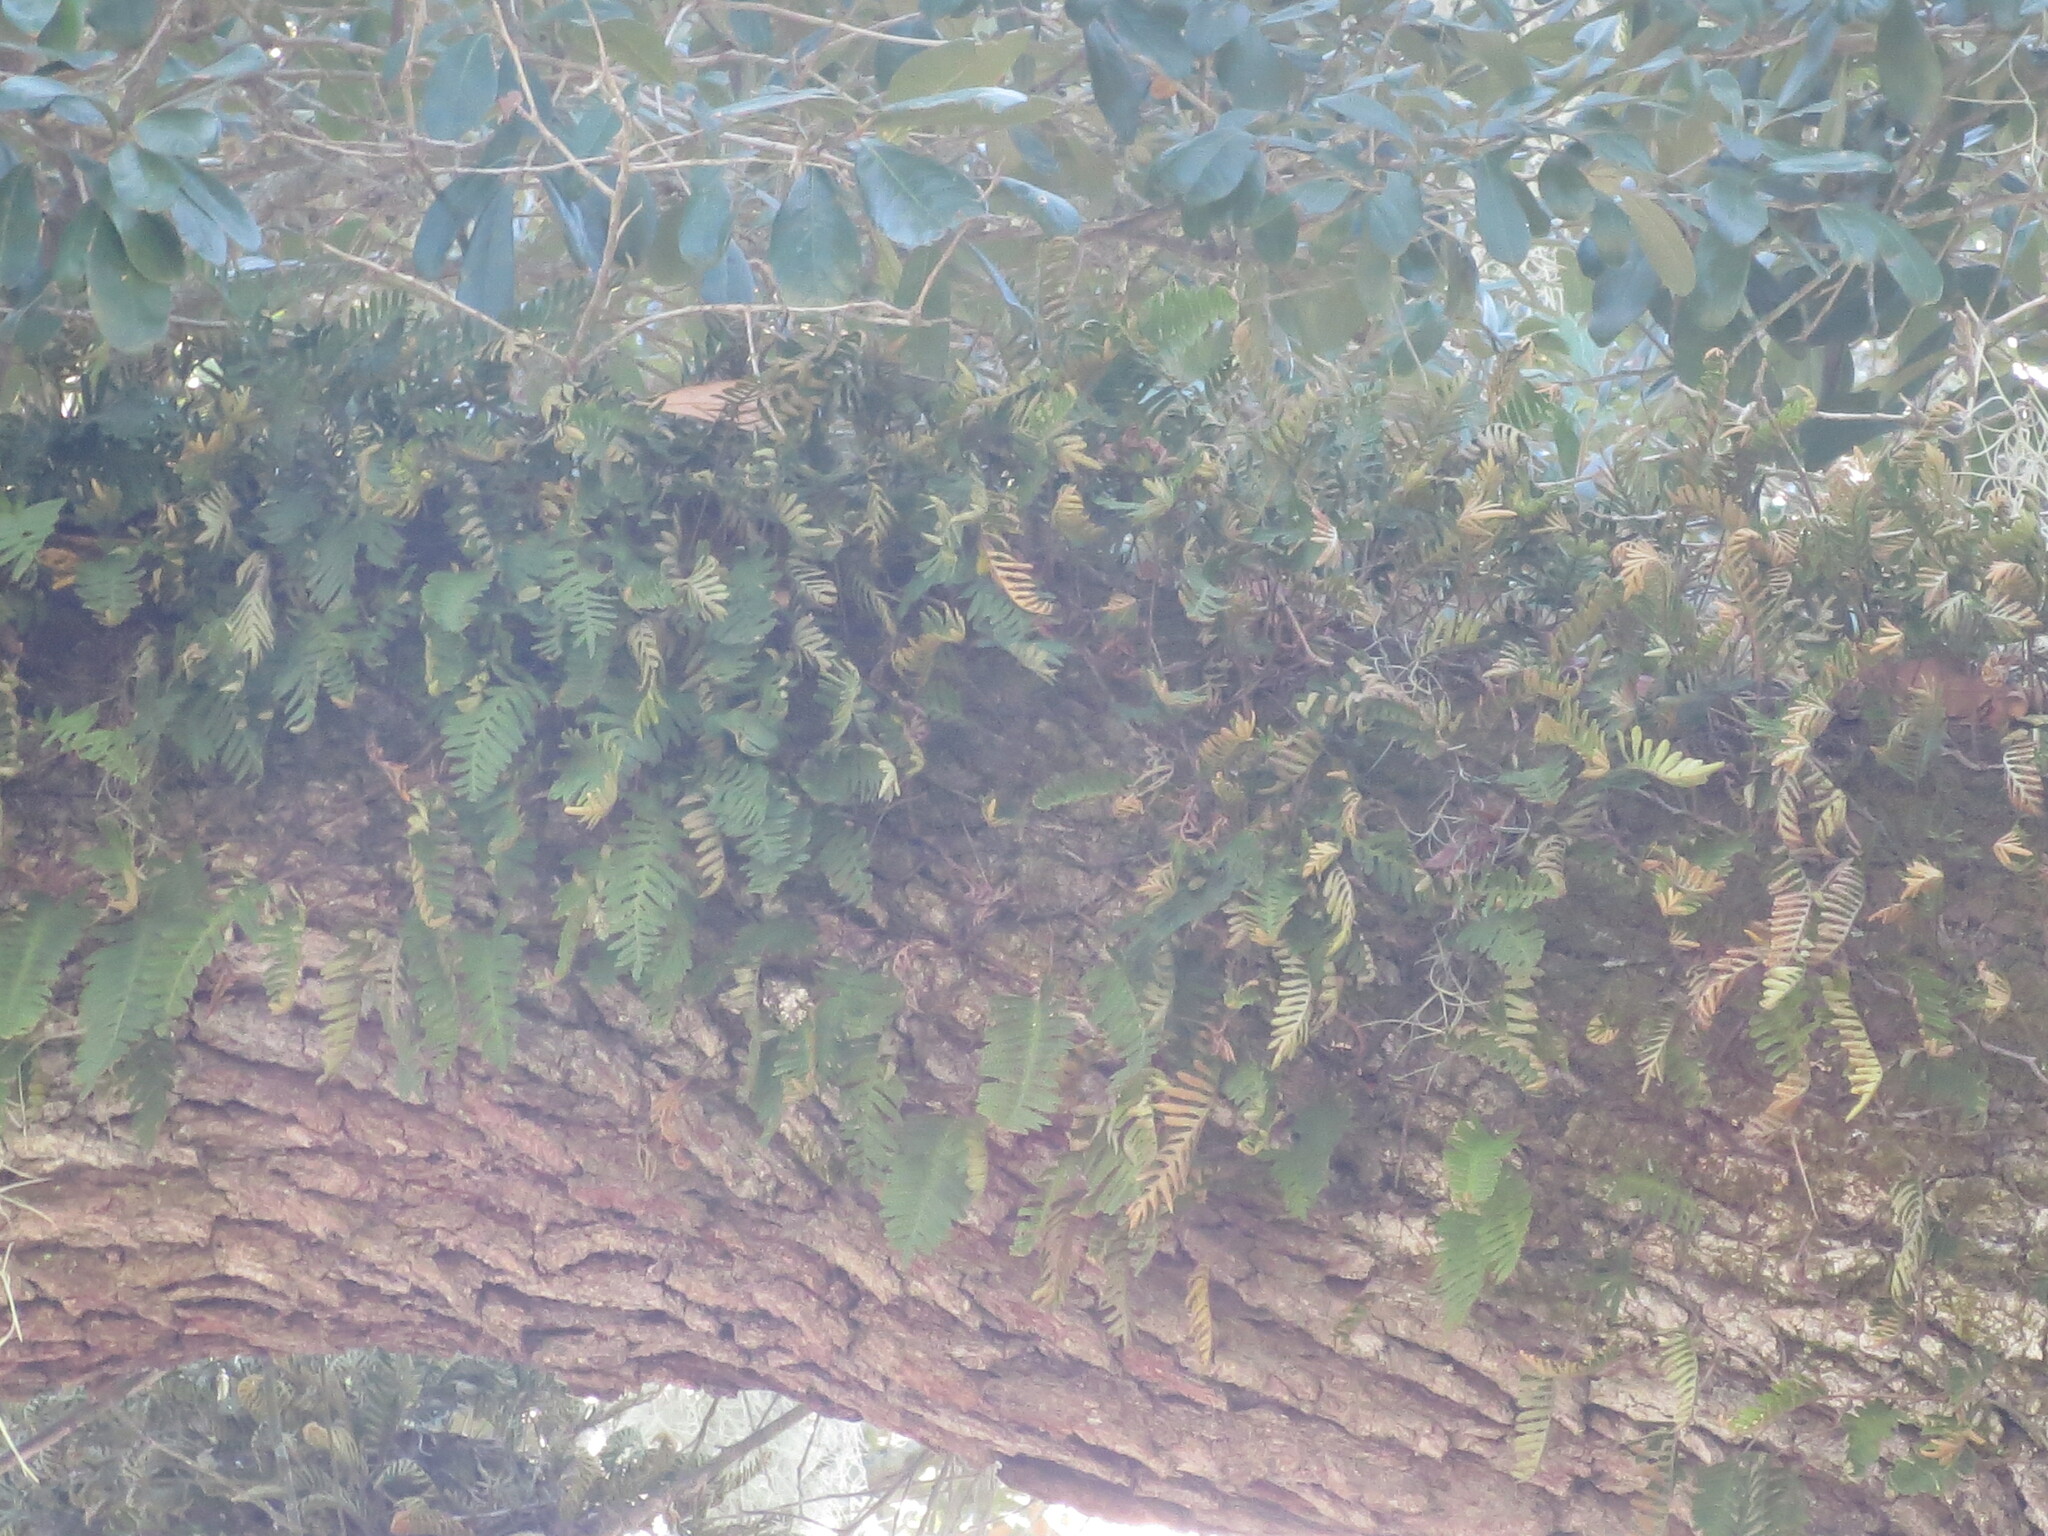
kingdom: Plantae
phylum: Tracheophyta
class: Polypodiopsida
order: Polypodiales
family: Polypodiaceae
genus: Pleopeltis
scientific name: Pleopeltis michauxiana
